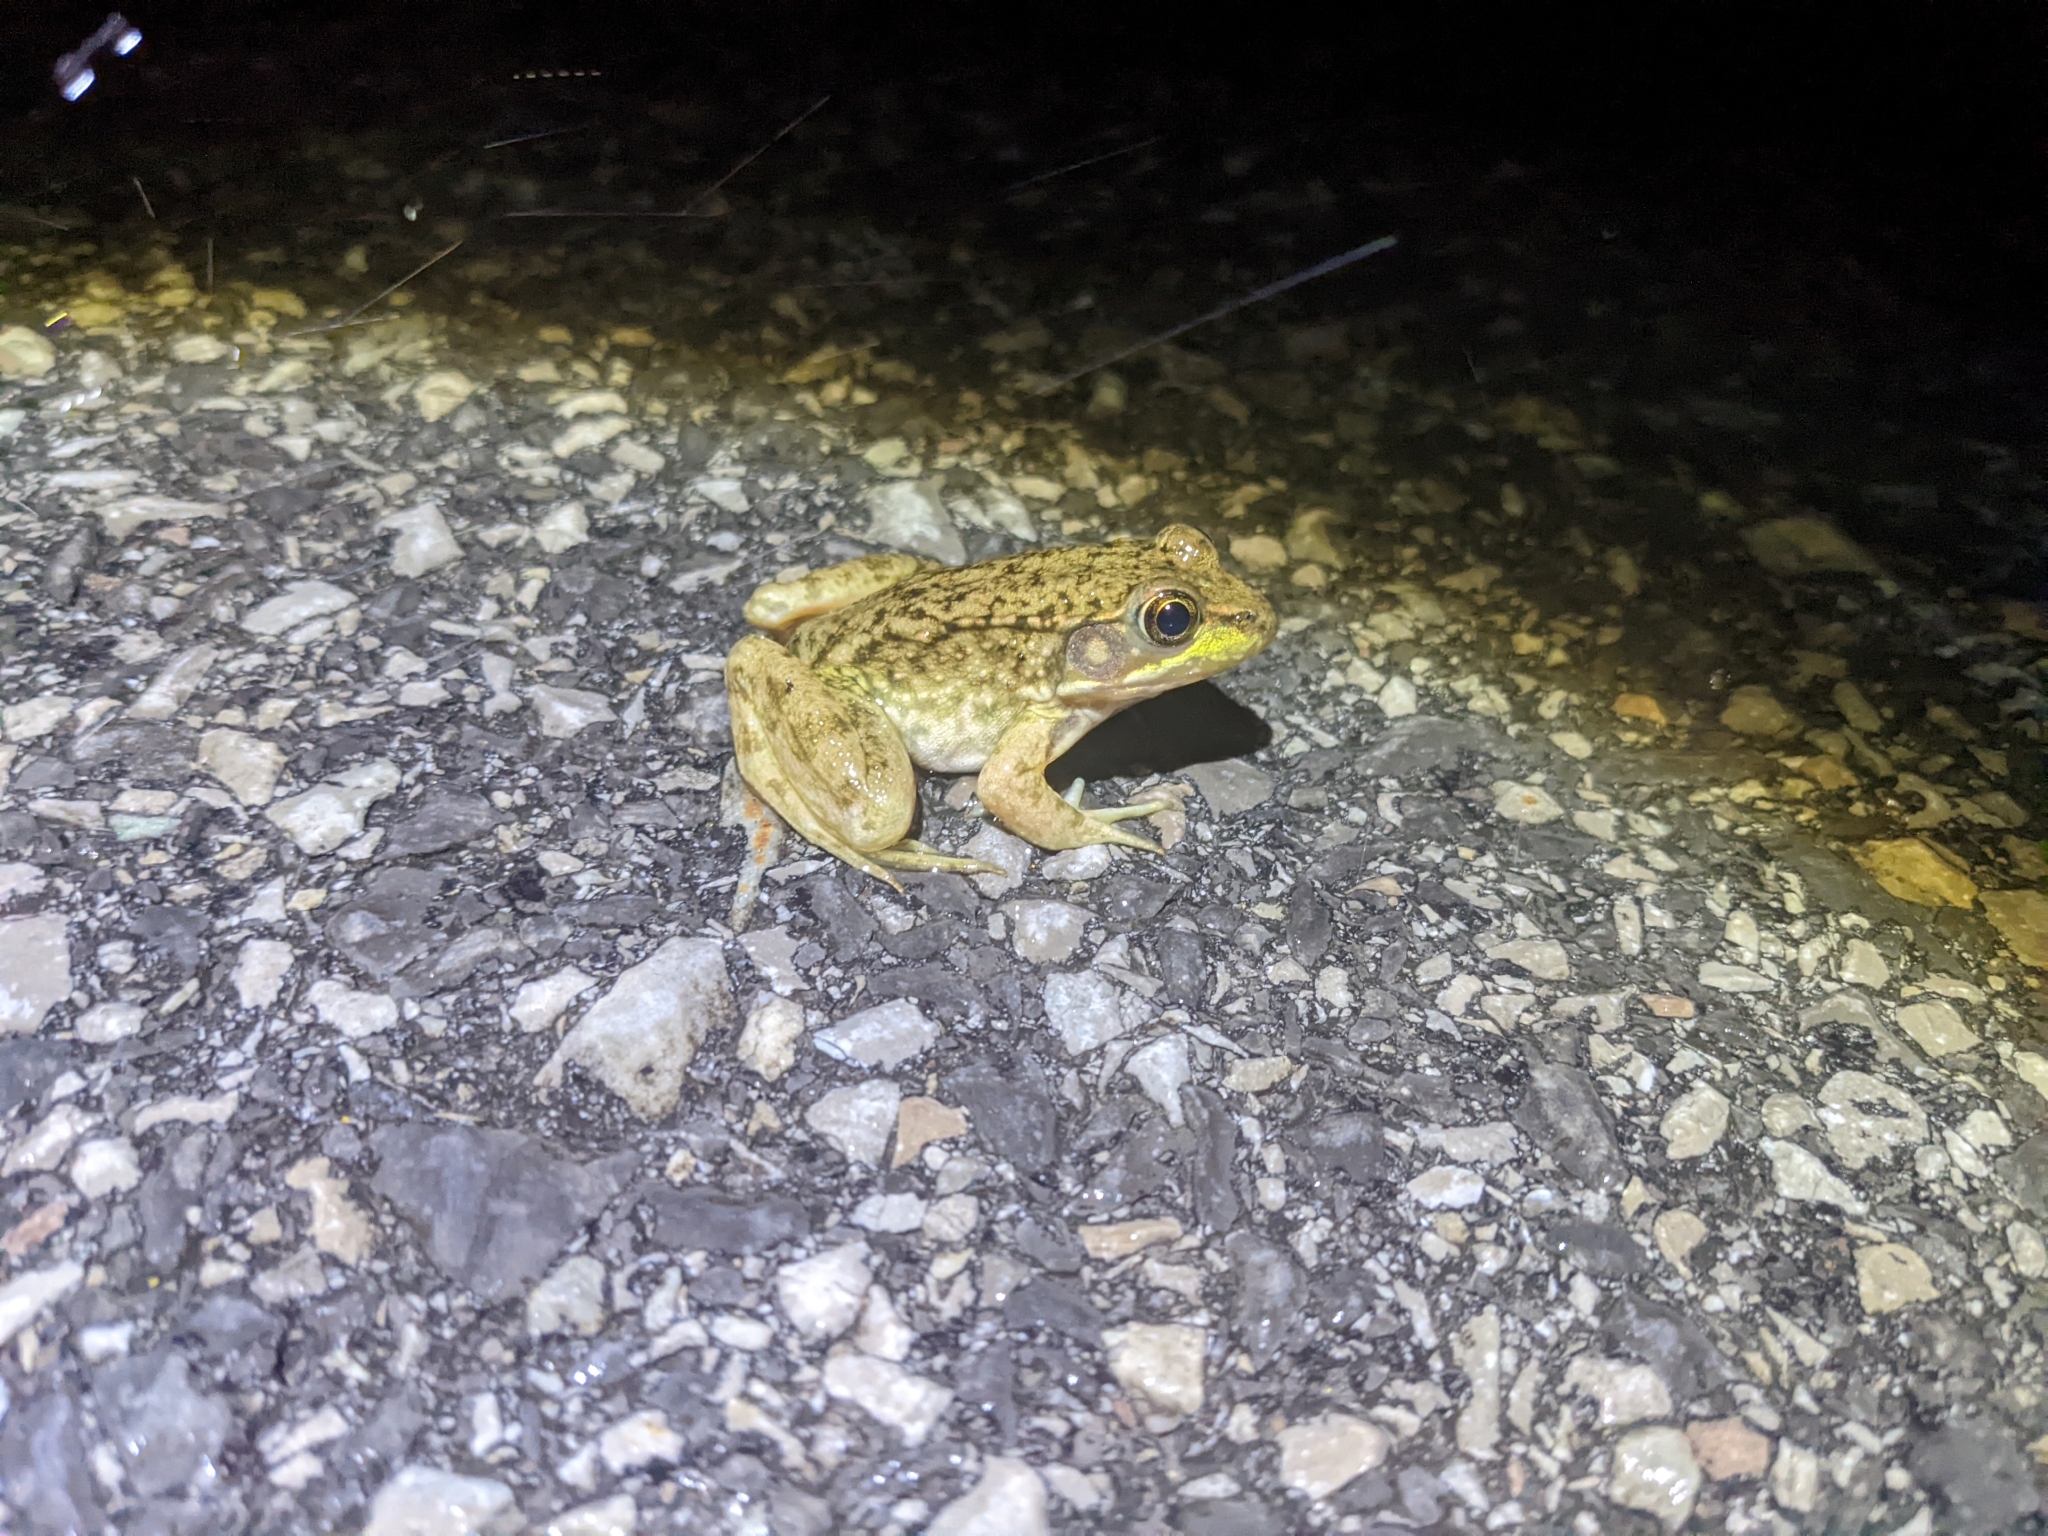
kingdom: Animalia
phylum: Chordata
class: Amphibia
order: Anura
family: Ranidae
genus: Lithobates
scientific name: Lithobates clamitans
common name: Green frog
